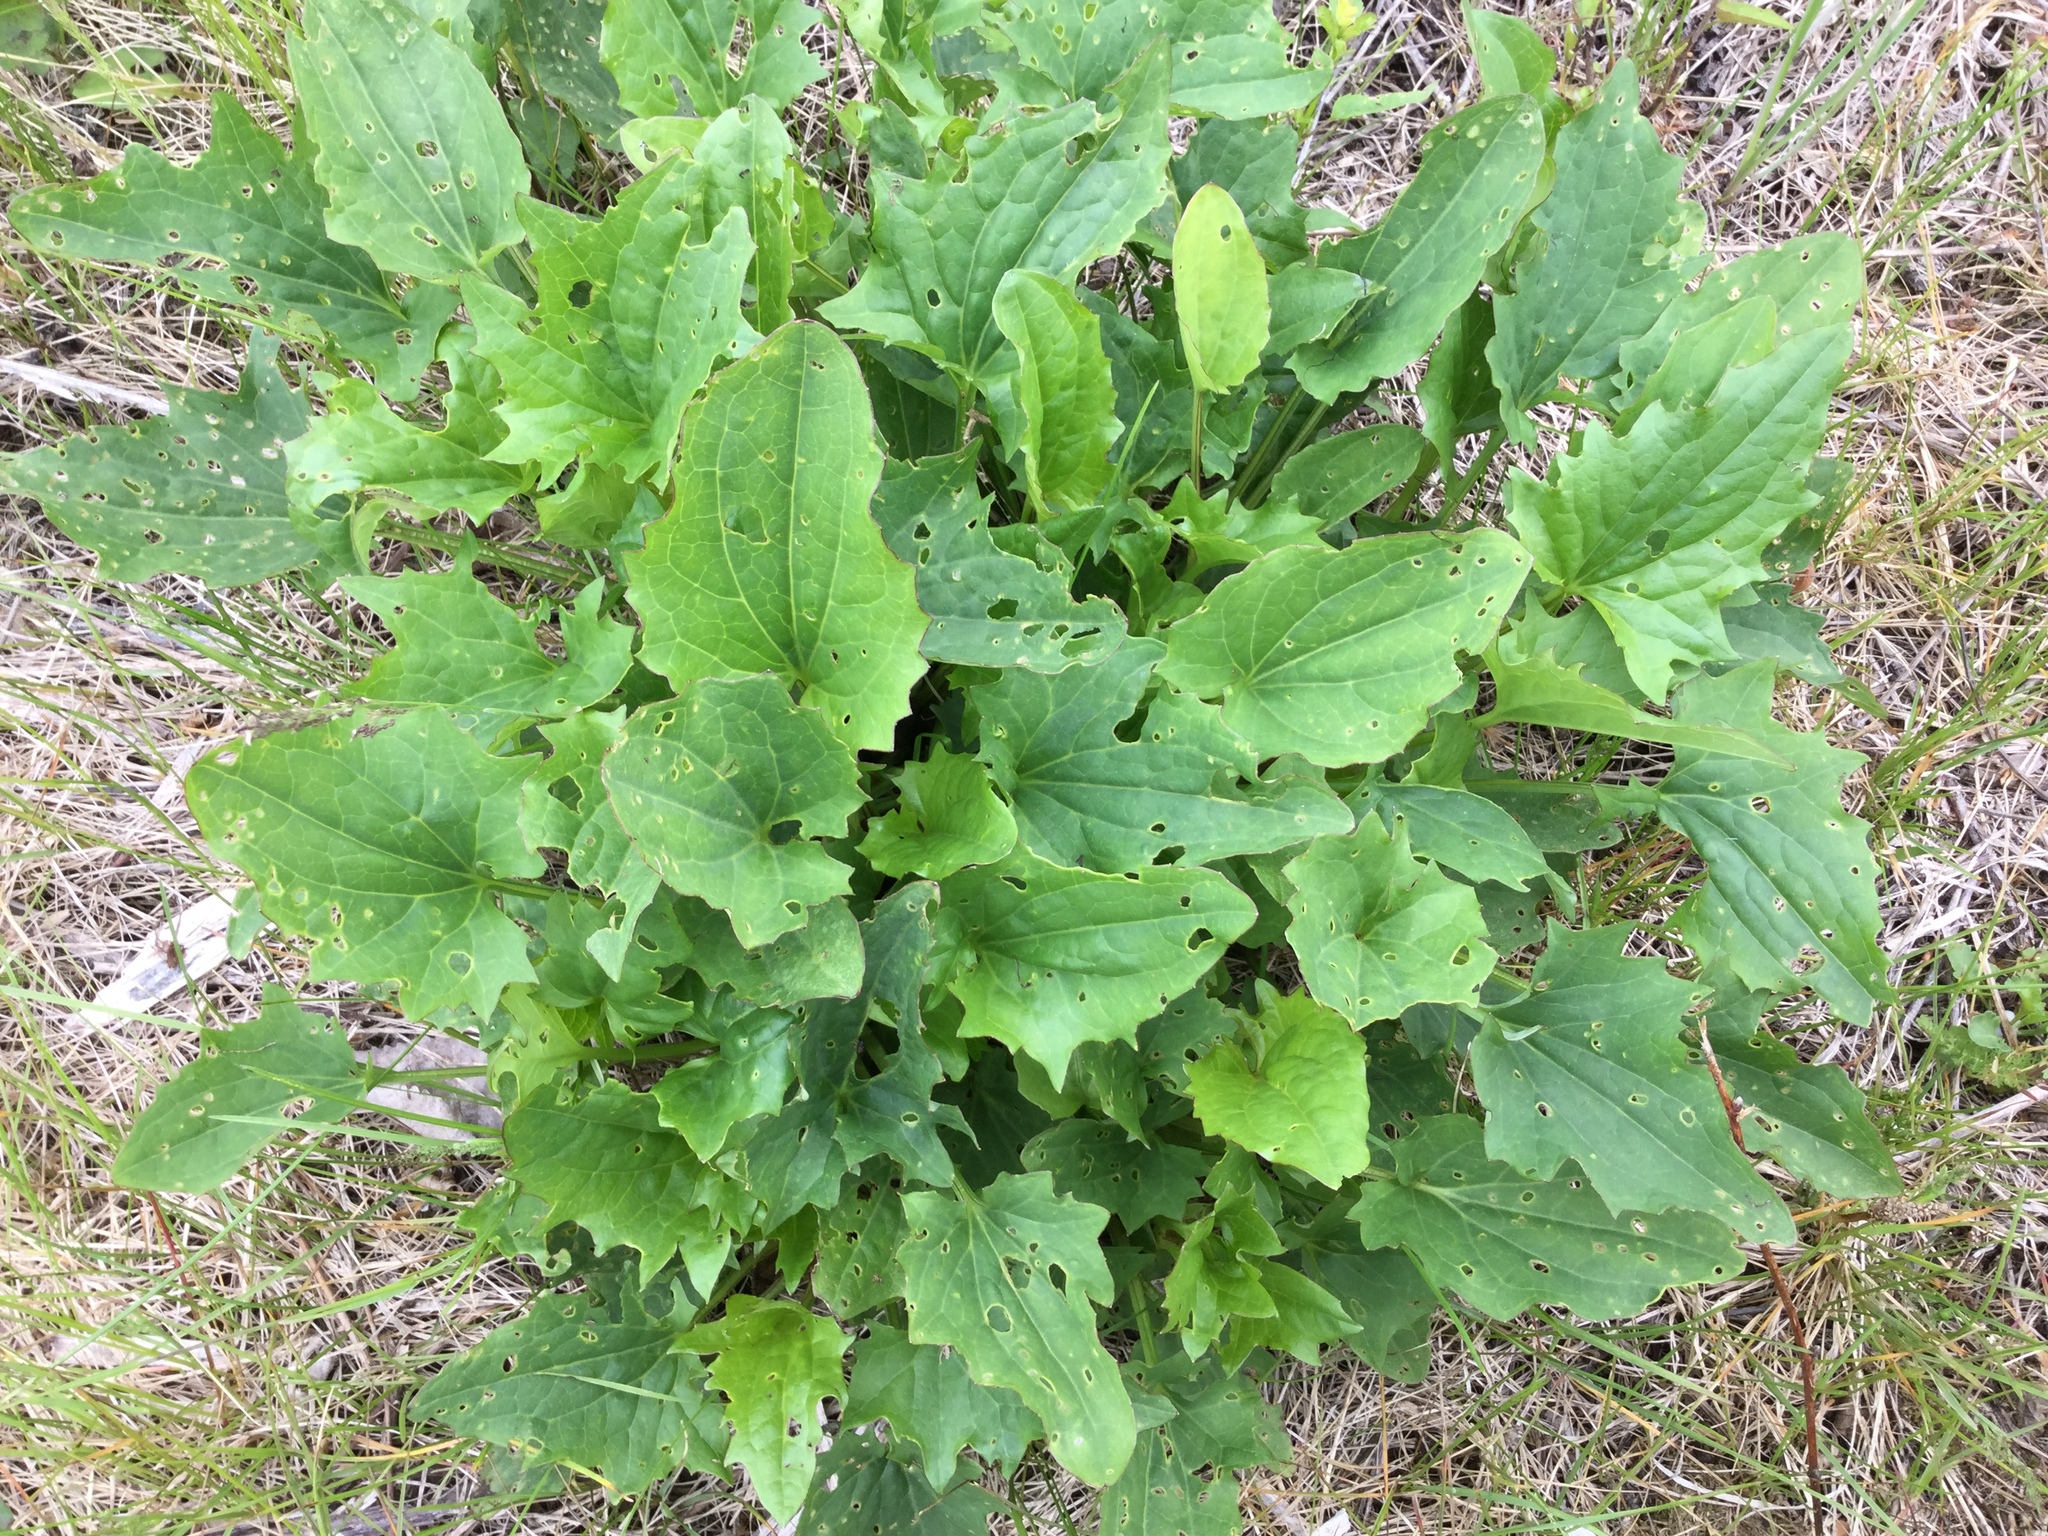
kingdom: Plantae
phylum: Tracheophyta
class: Magnoliopsida
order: Asterales
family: Asteraceae
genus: Arnoglossum
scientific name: Arnoglossum atriplicifolium
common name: Pale indian-plantain
